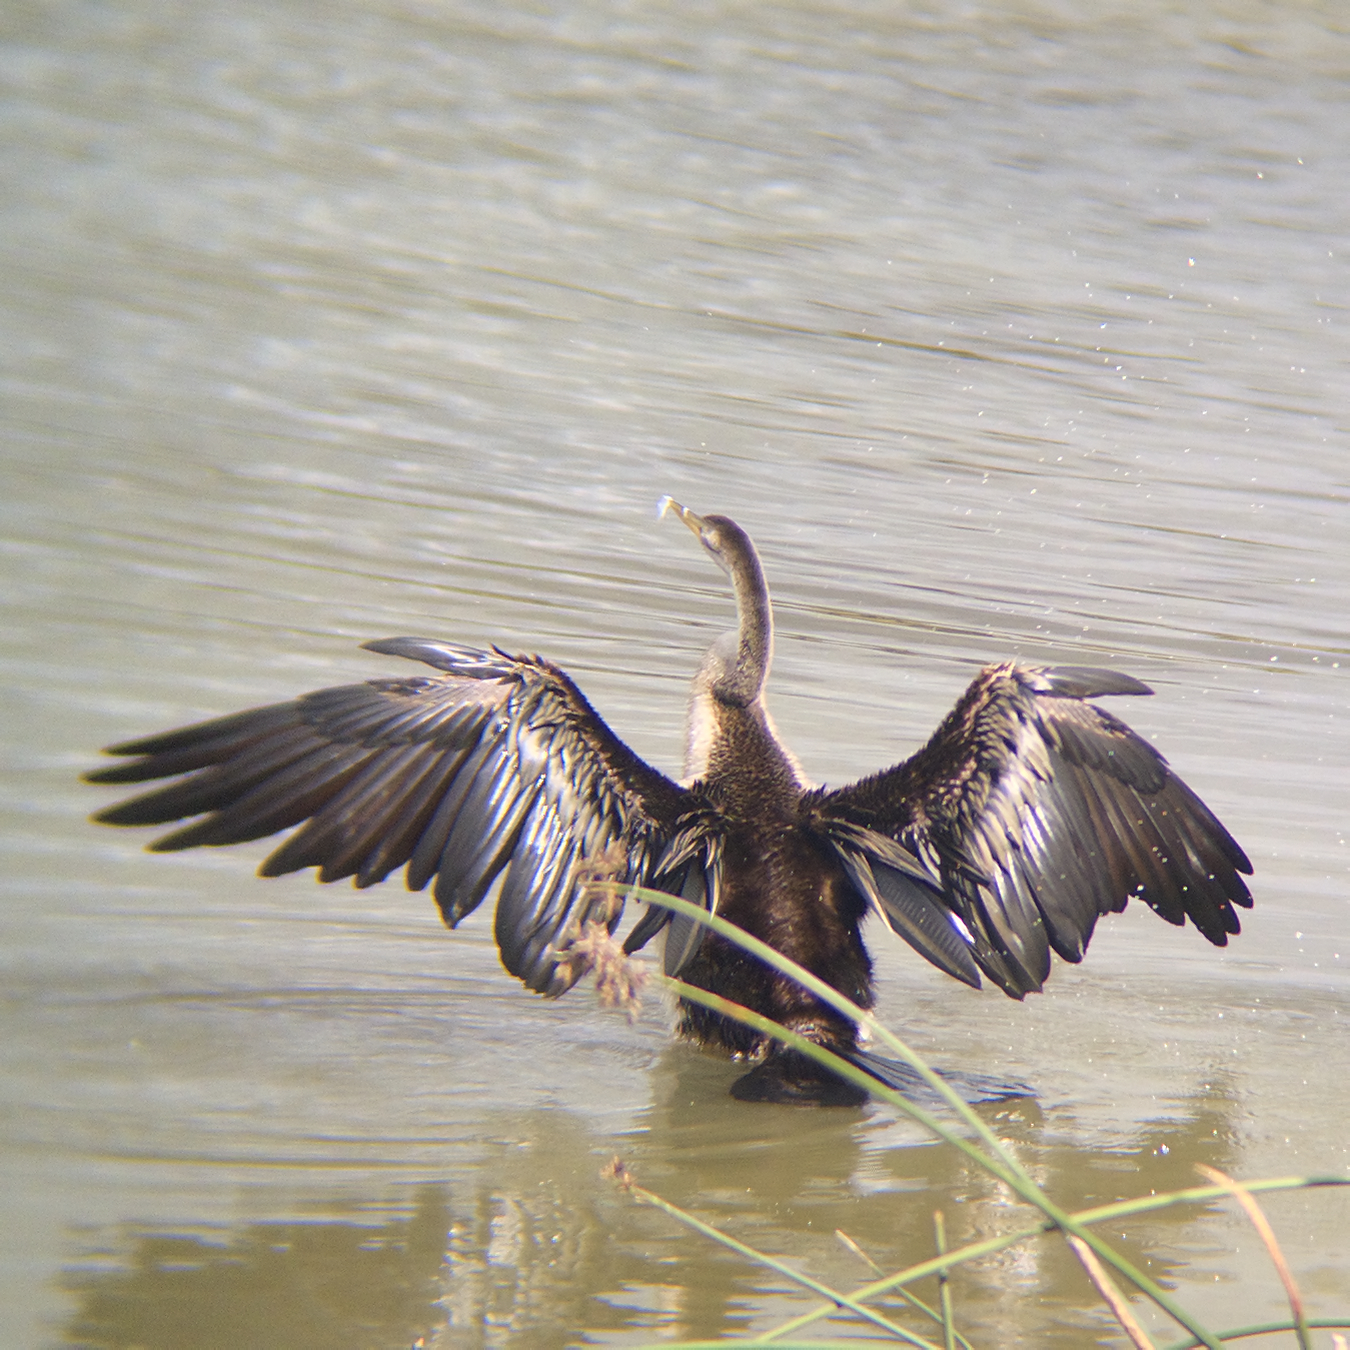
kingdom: Animalia
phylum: Chordata
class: Aves
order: Suliformes
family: Anhingidae
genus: Anhinga
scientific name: Anhinga novaehollandiae
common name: Australasian darter
